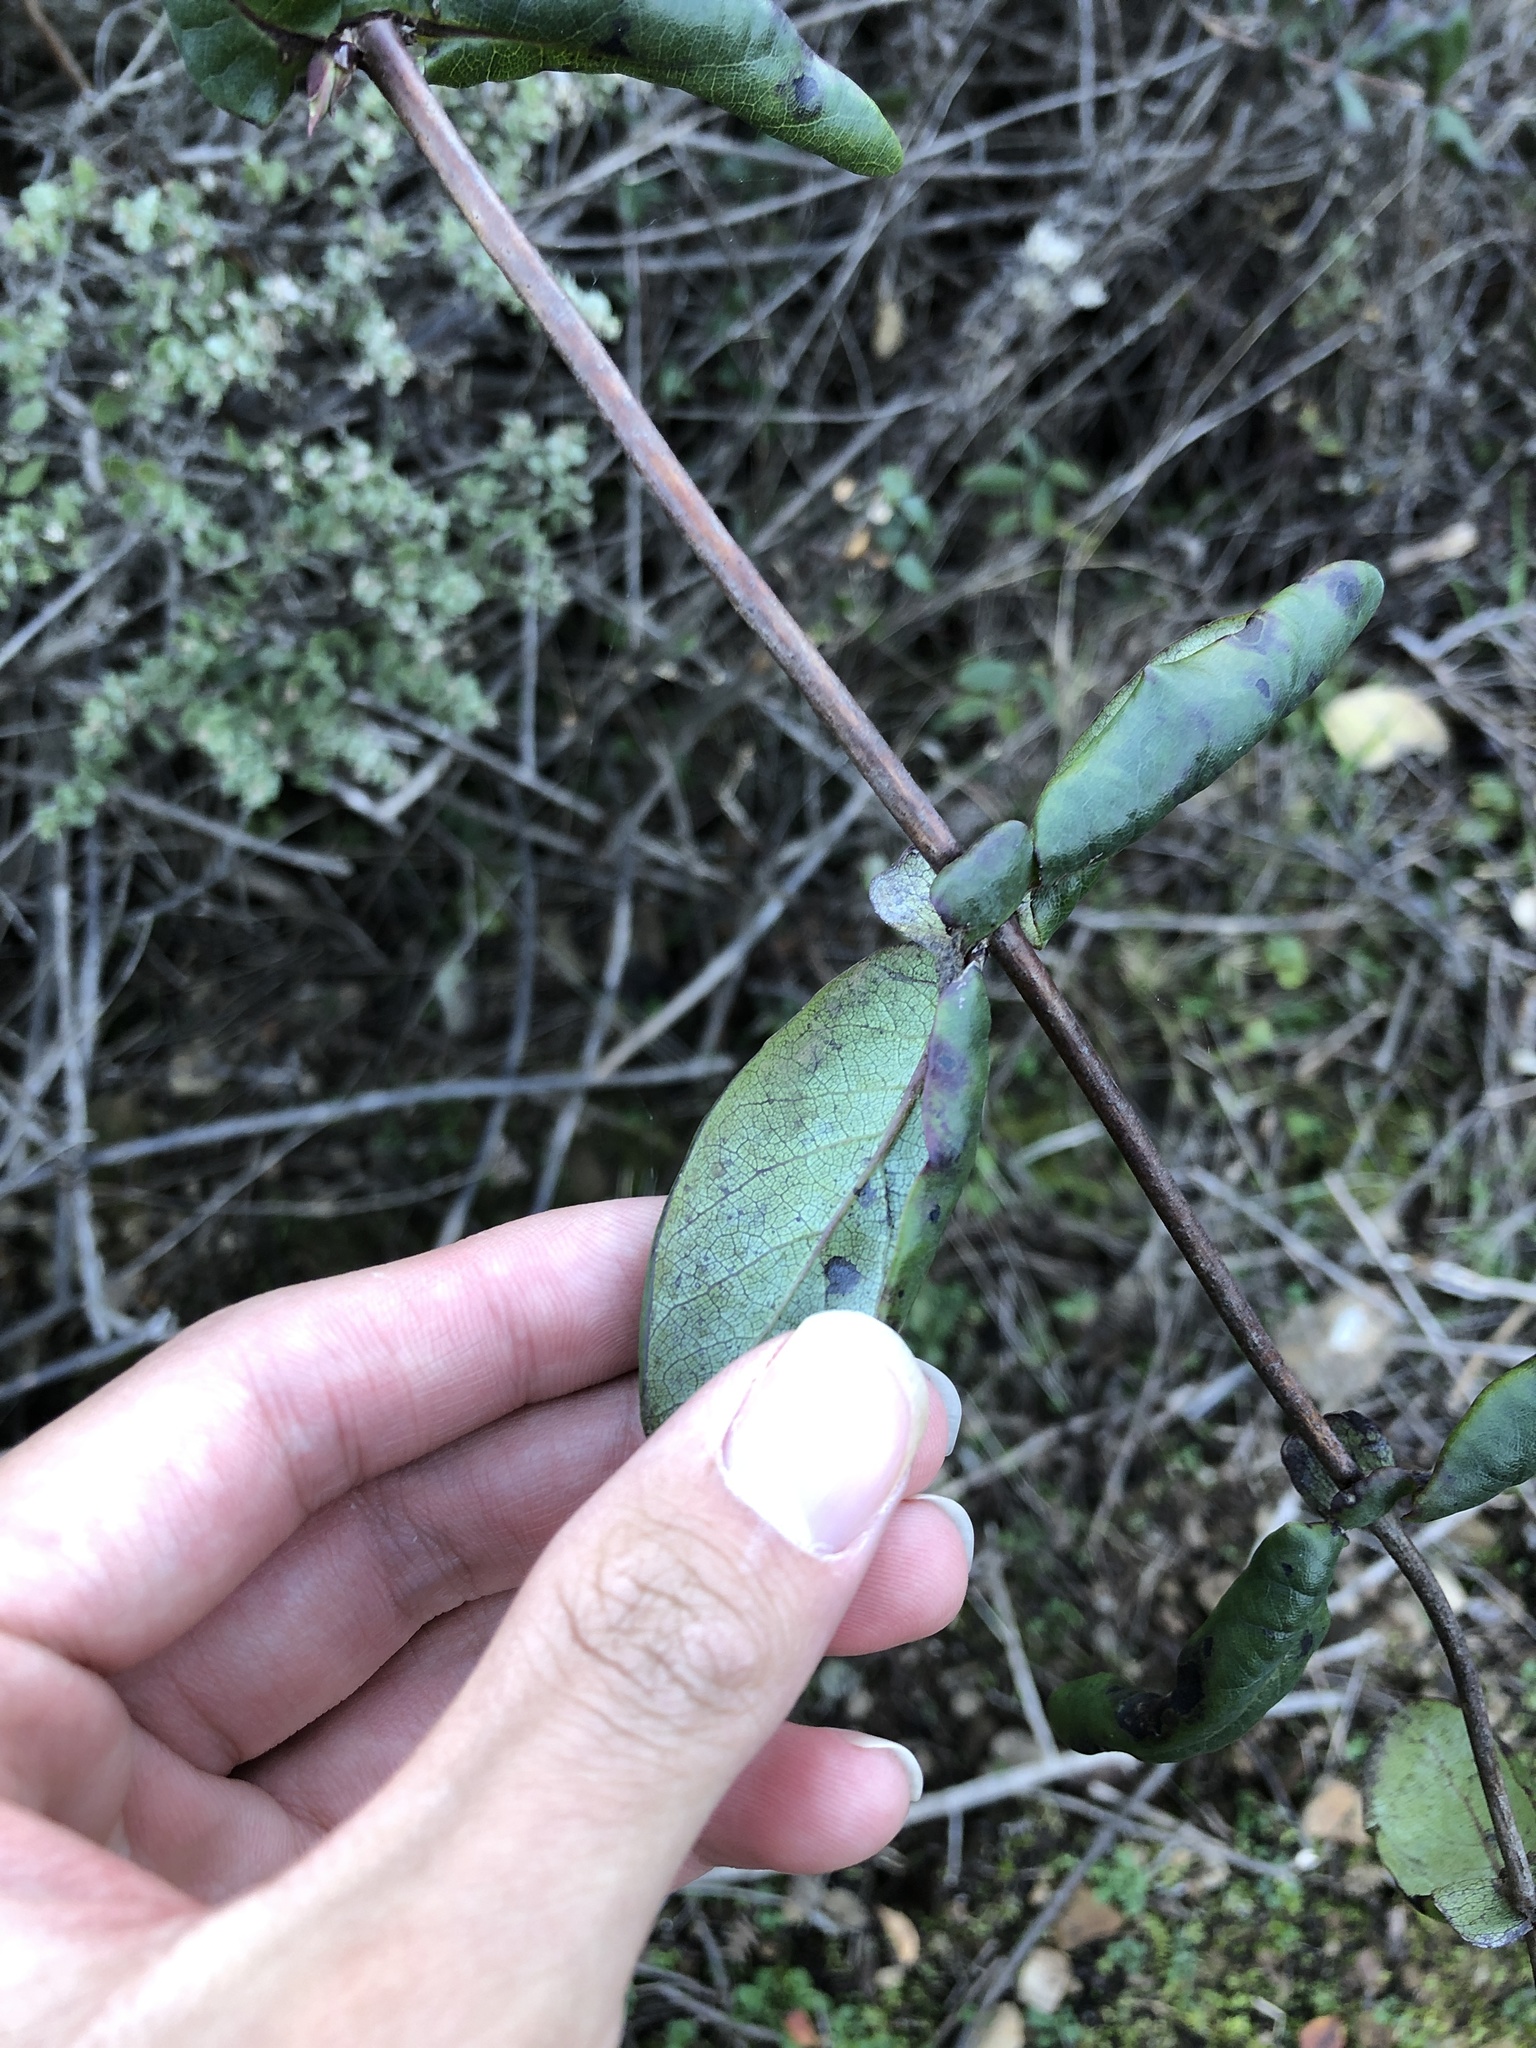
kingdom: Plantae
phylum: Tracheophyta
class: Magnoliopsida
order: Dipsacales
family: Caprifoliaceae
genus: Lonicera
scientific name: Lonicera hispidula
